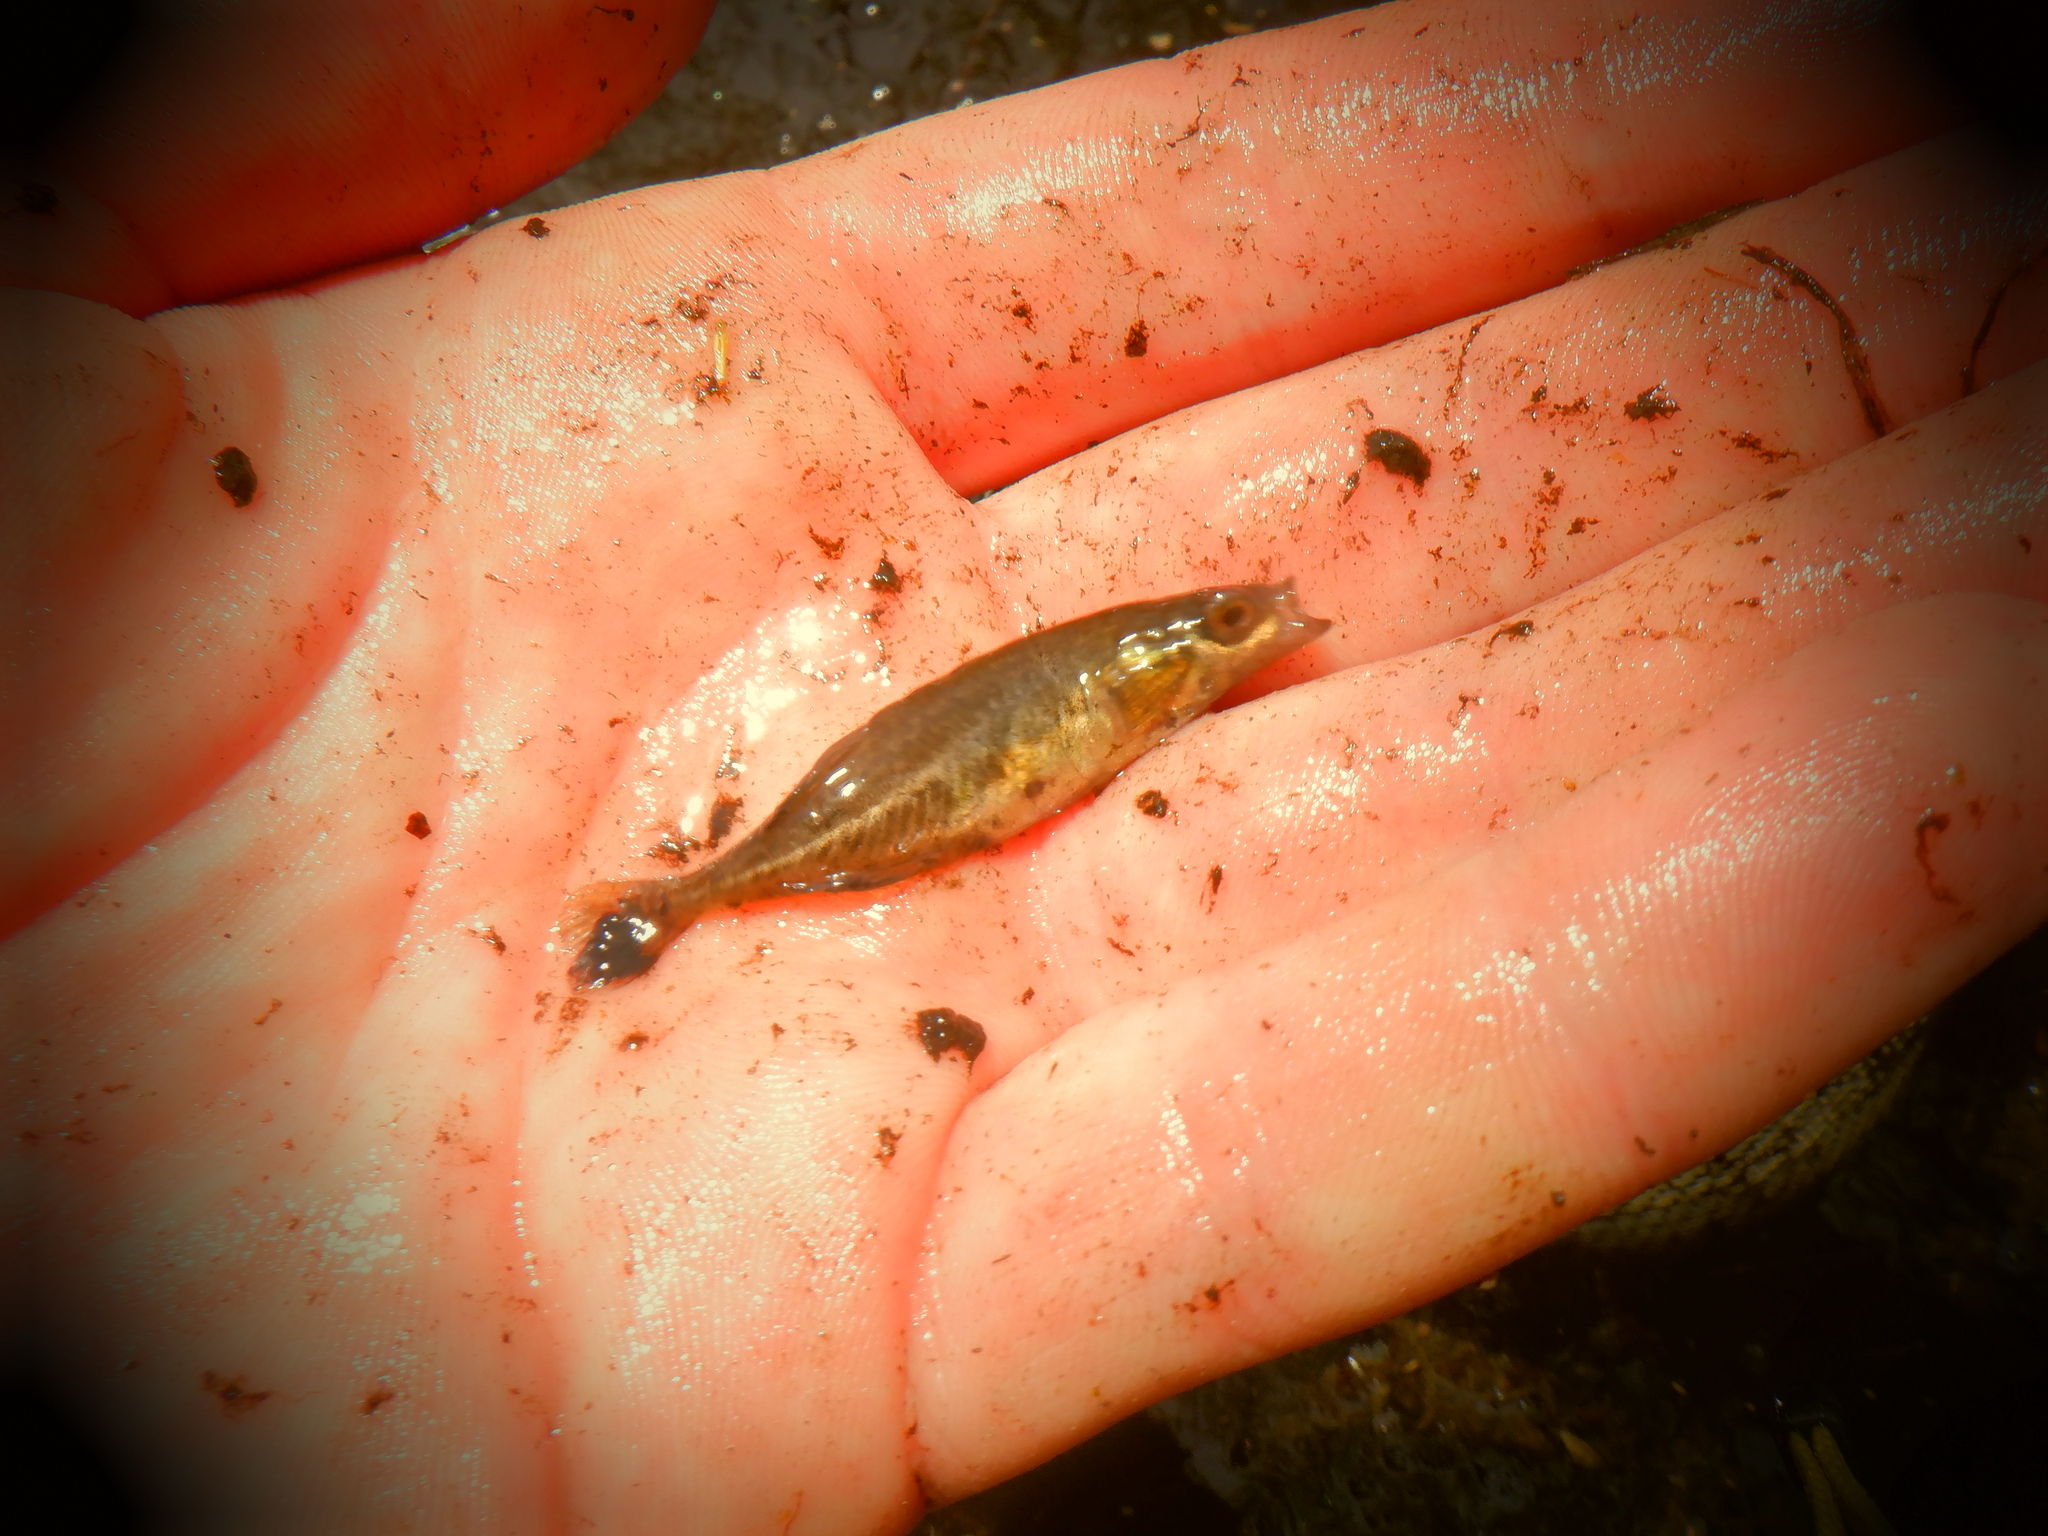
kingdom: Animalia
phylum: Chordata
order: Gasterosteiformes
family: Gasterosteidae
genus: Culaea
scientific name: Culaea inconstans
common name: Brook stickleback
